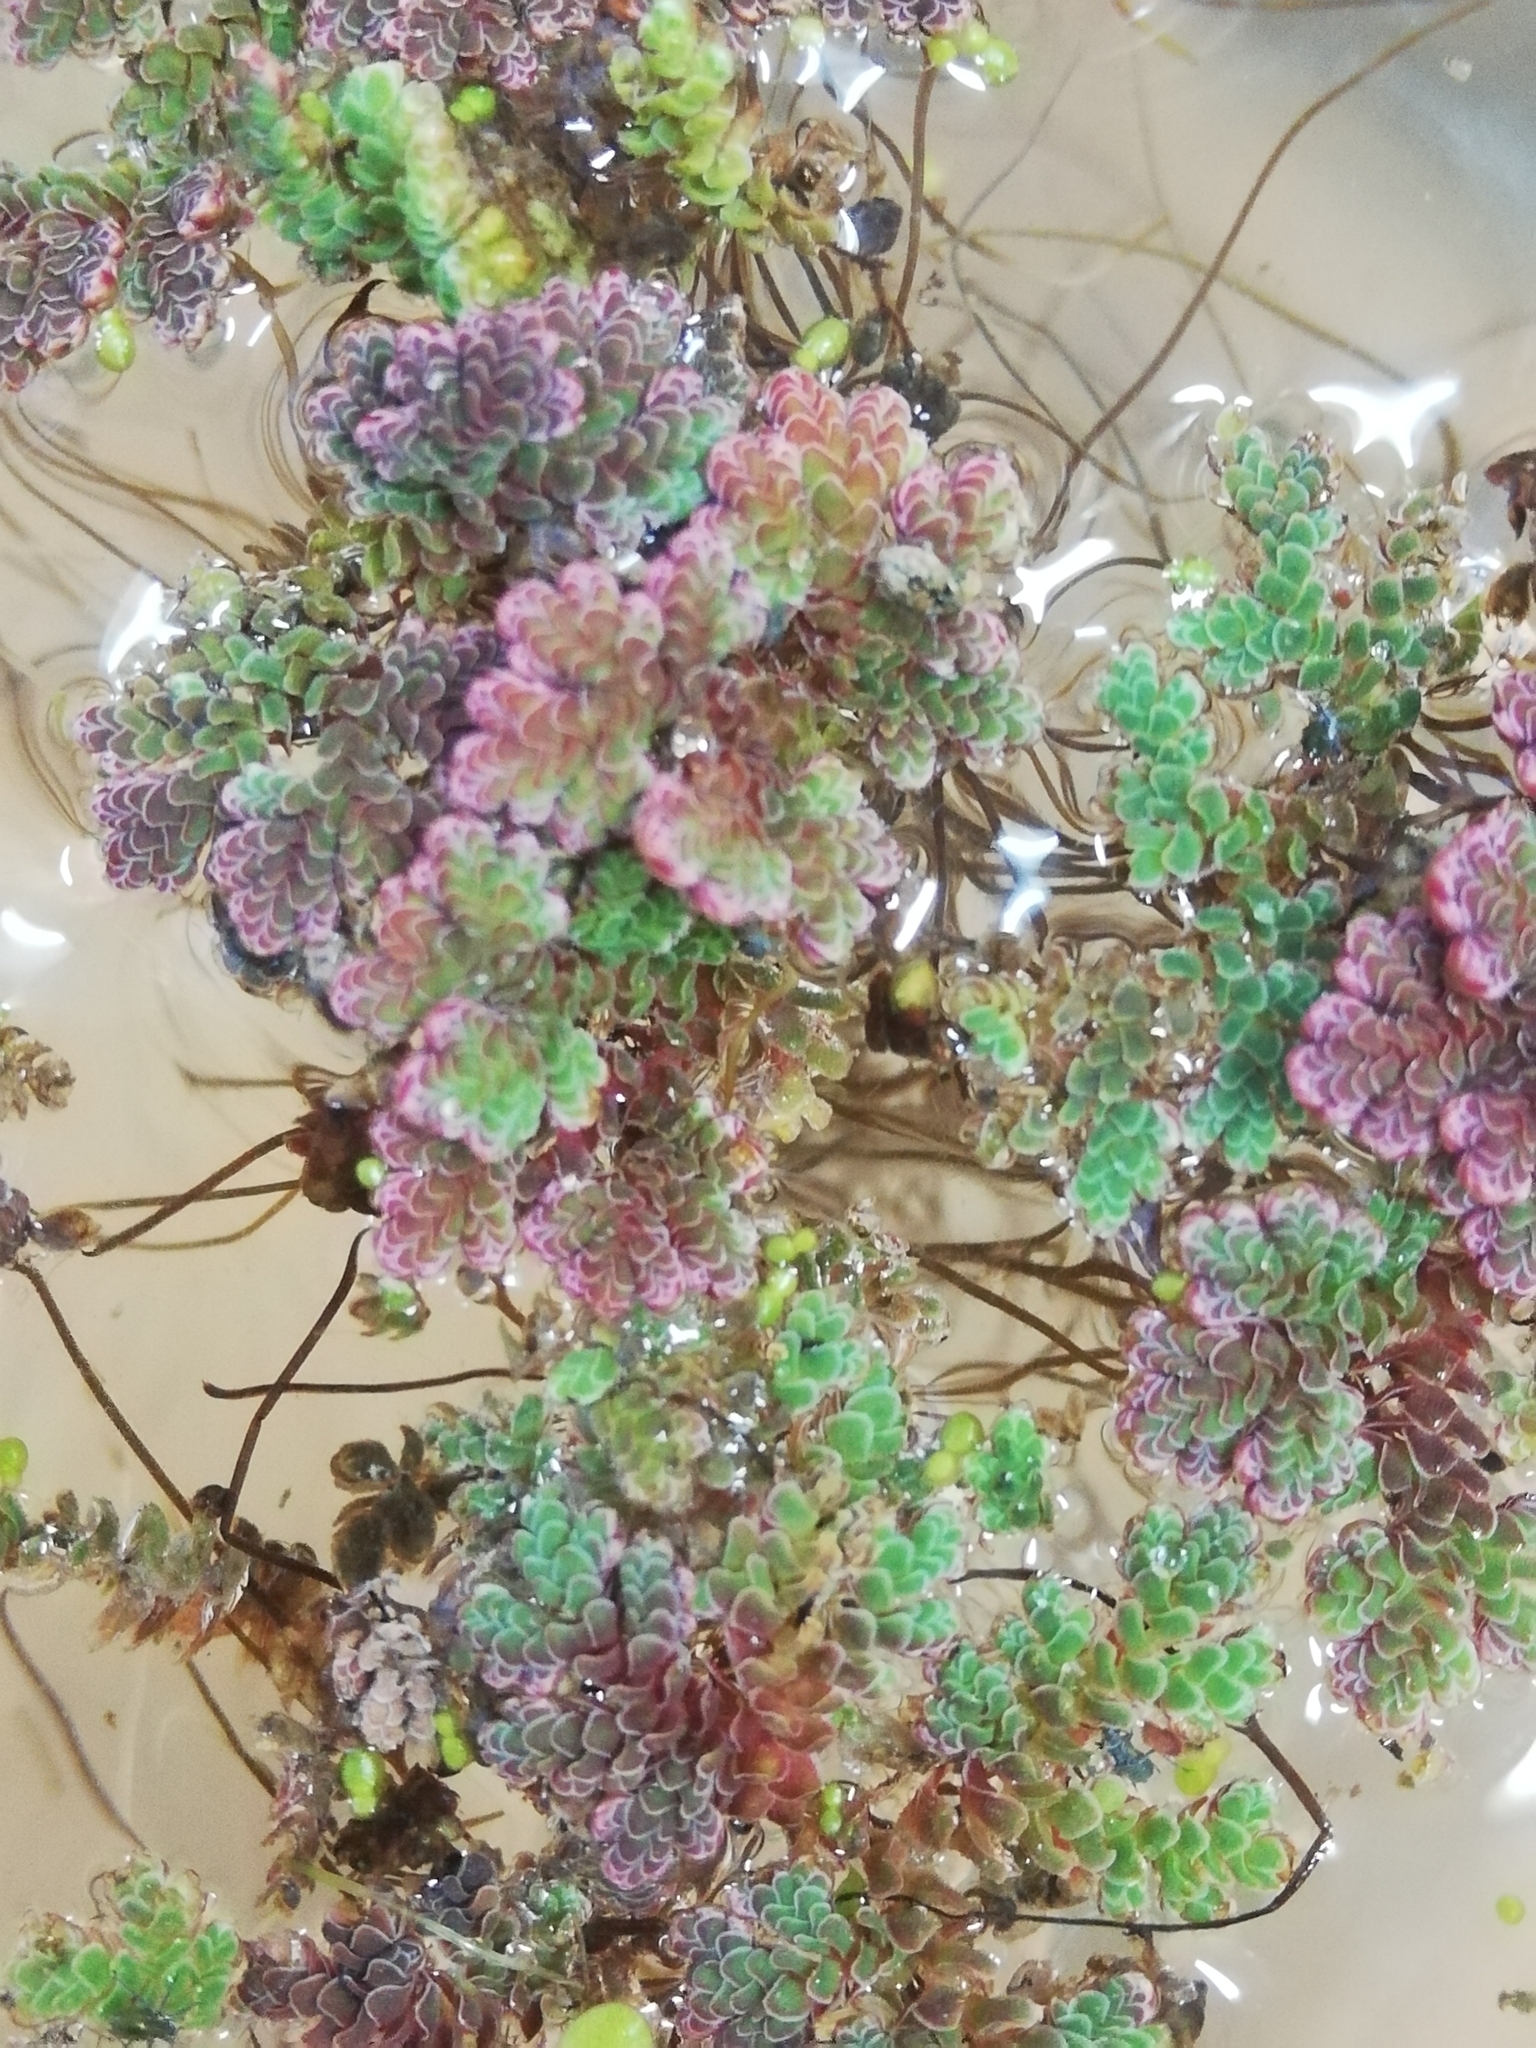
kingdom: Plantae
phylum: Tracheophyta
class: Polypodiopsida
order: Salviniales
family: Salviniaceae
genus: Azolla
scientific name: Azolla rubra
